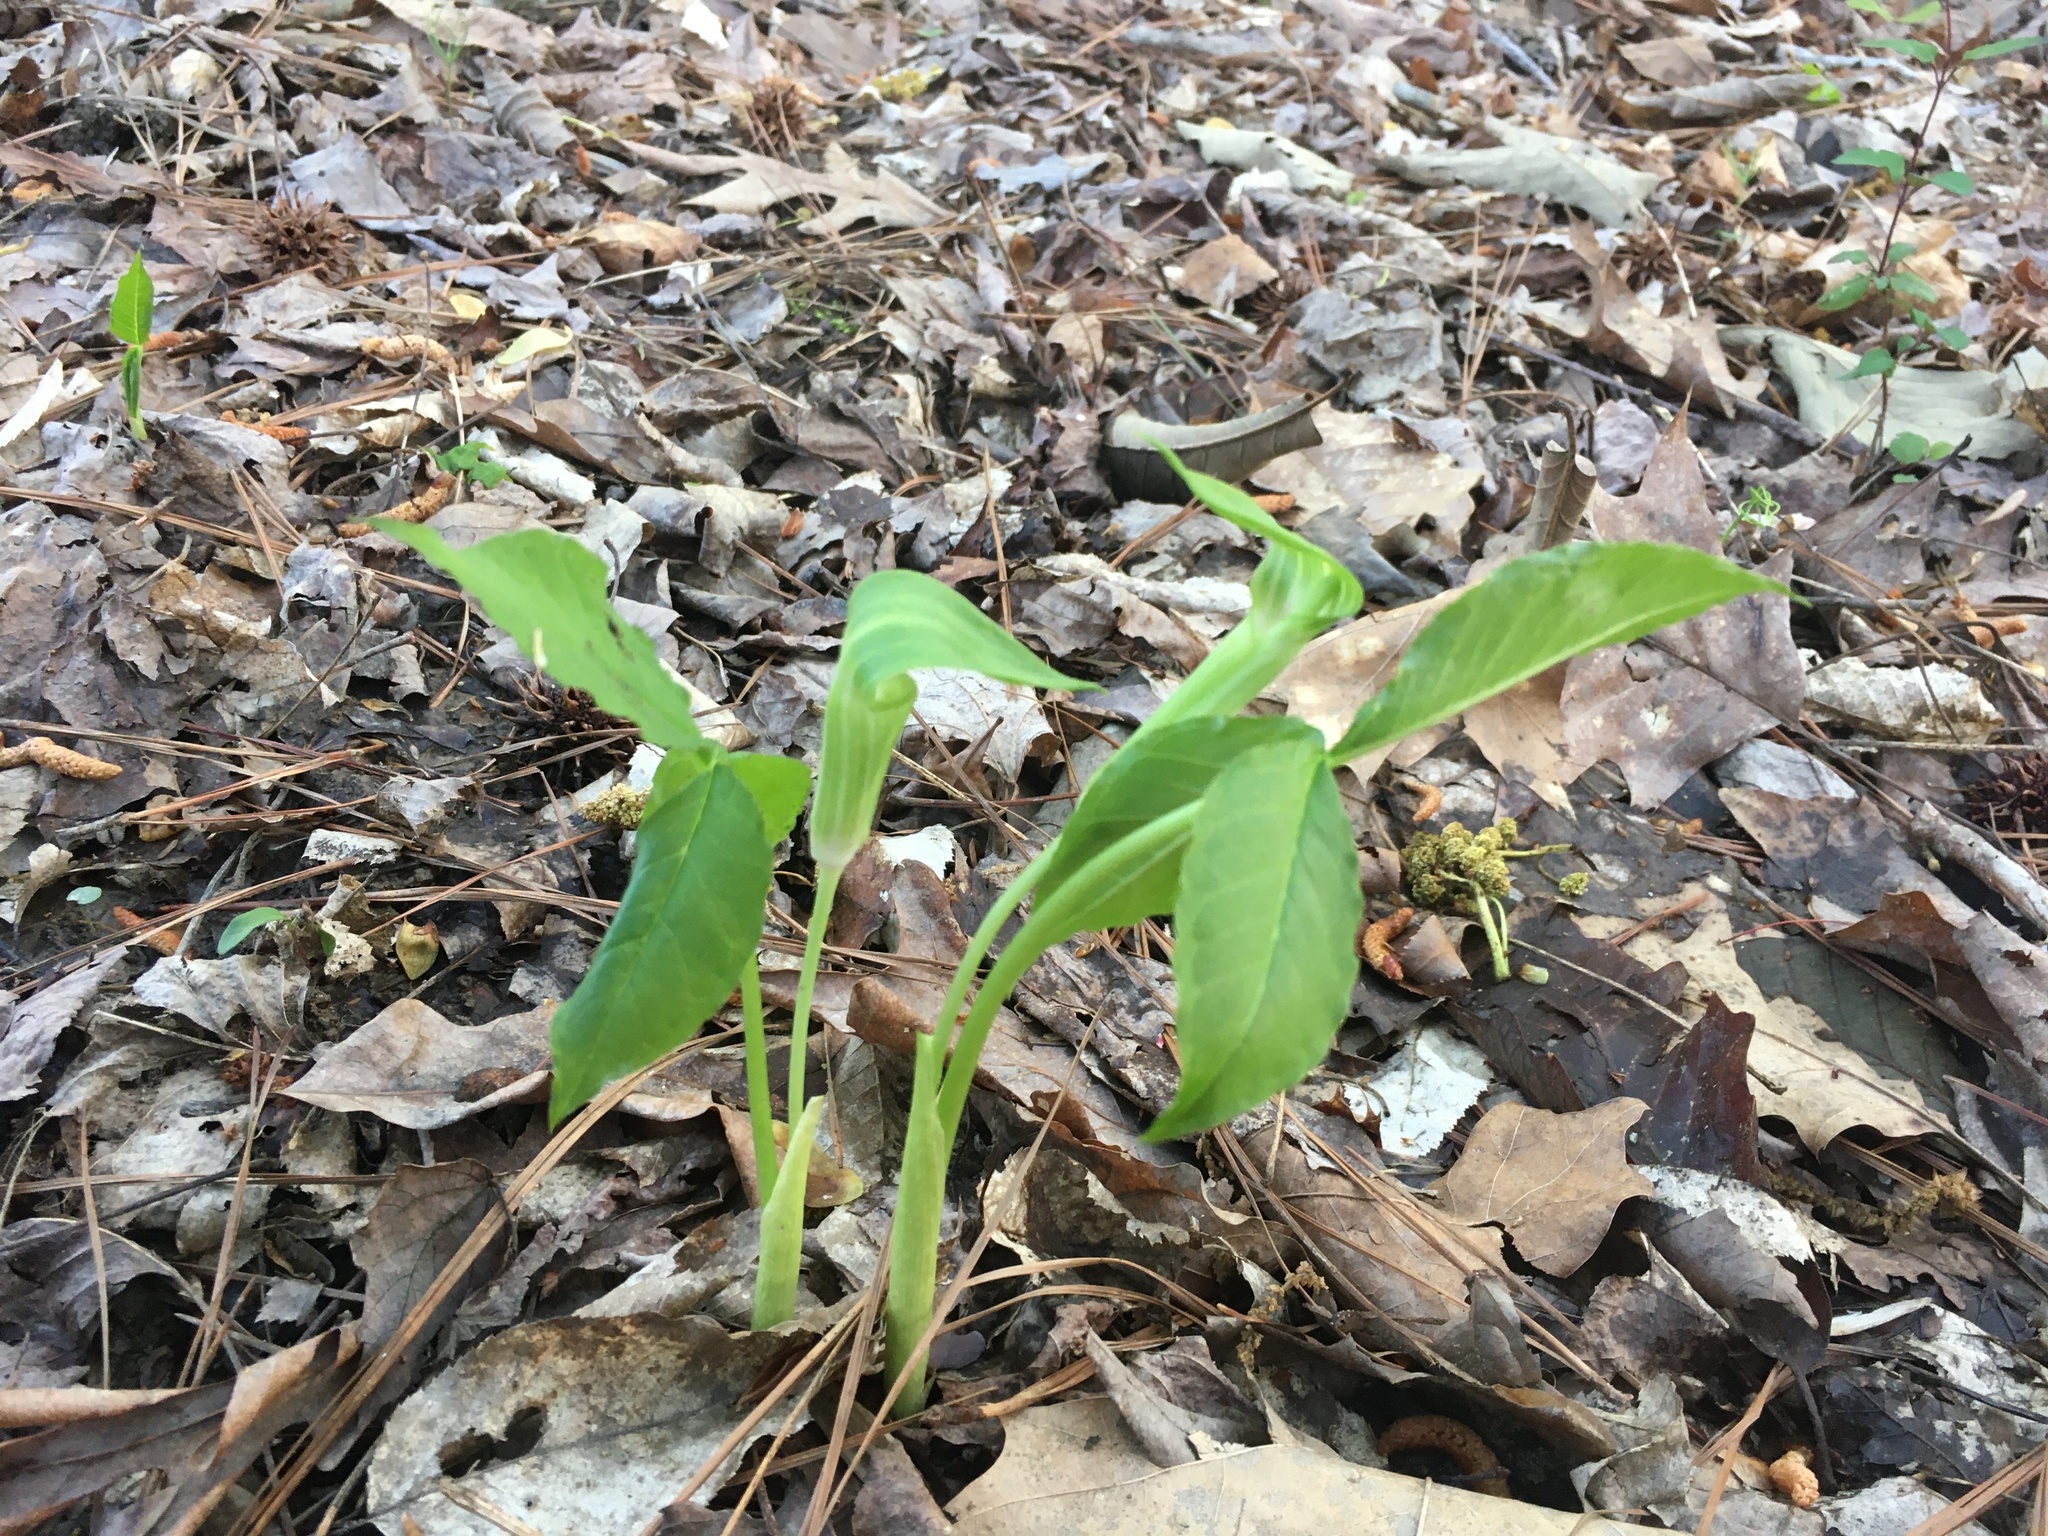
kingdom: Plantae
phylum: Tracheophyta
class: Liliopsida
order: Alismatales
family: Araceae
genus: Arisaema
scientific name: Arisaema pusillum
